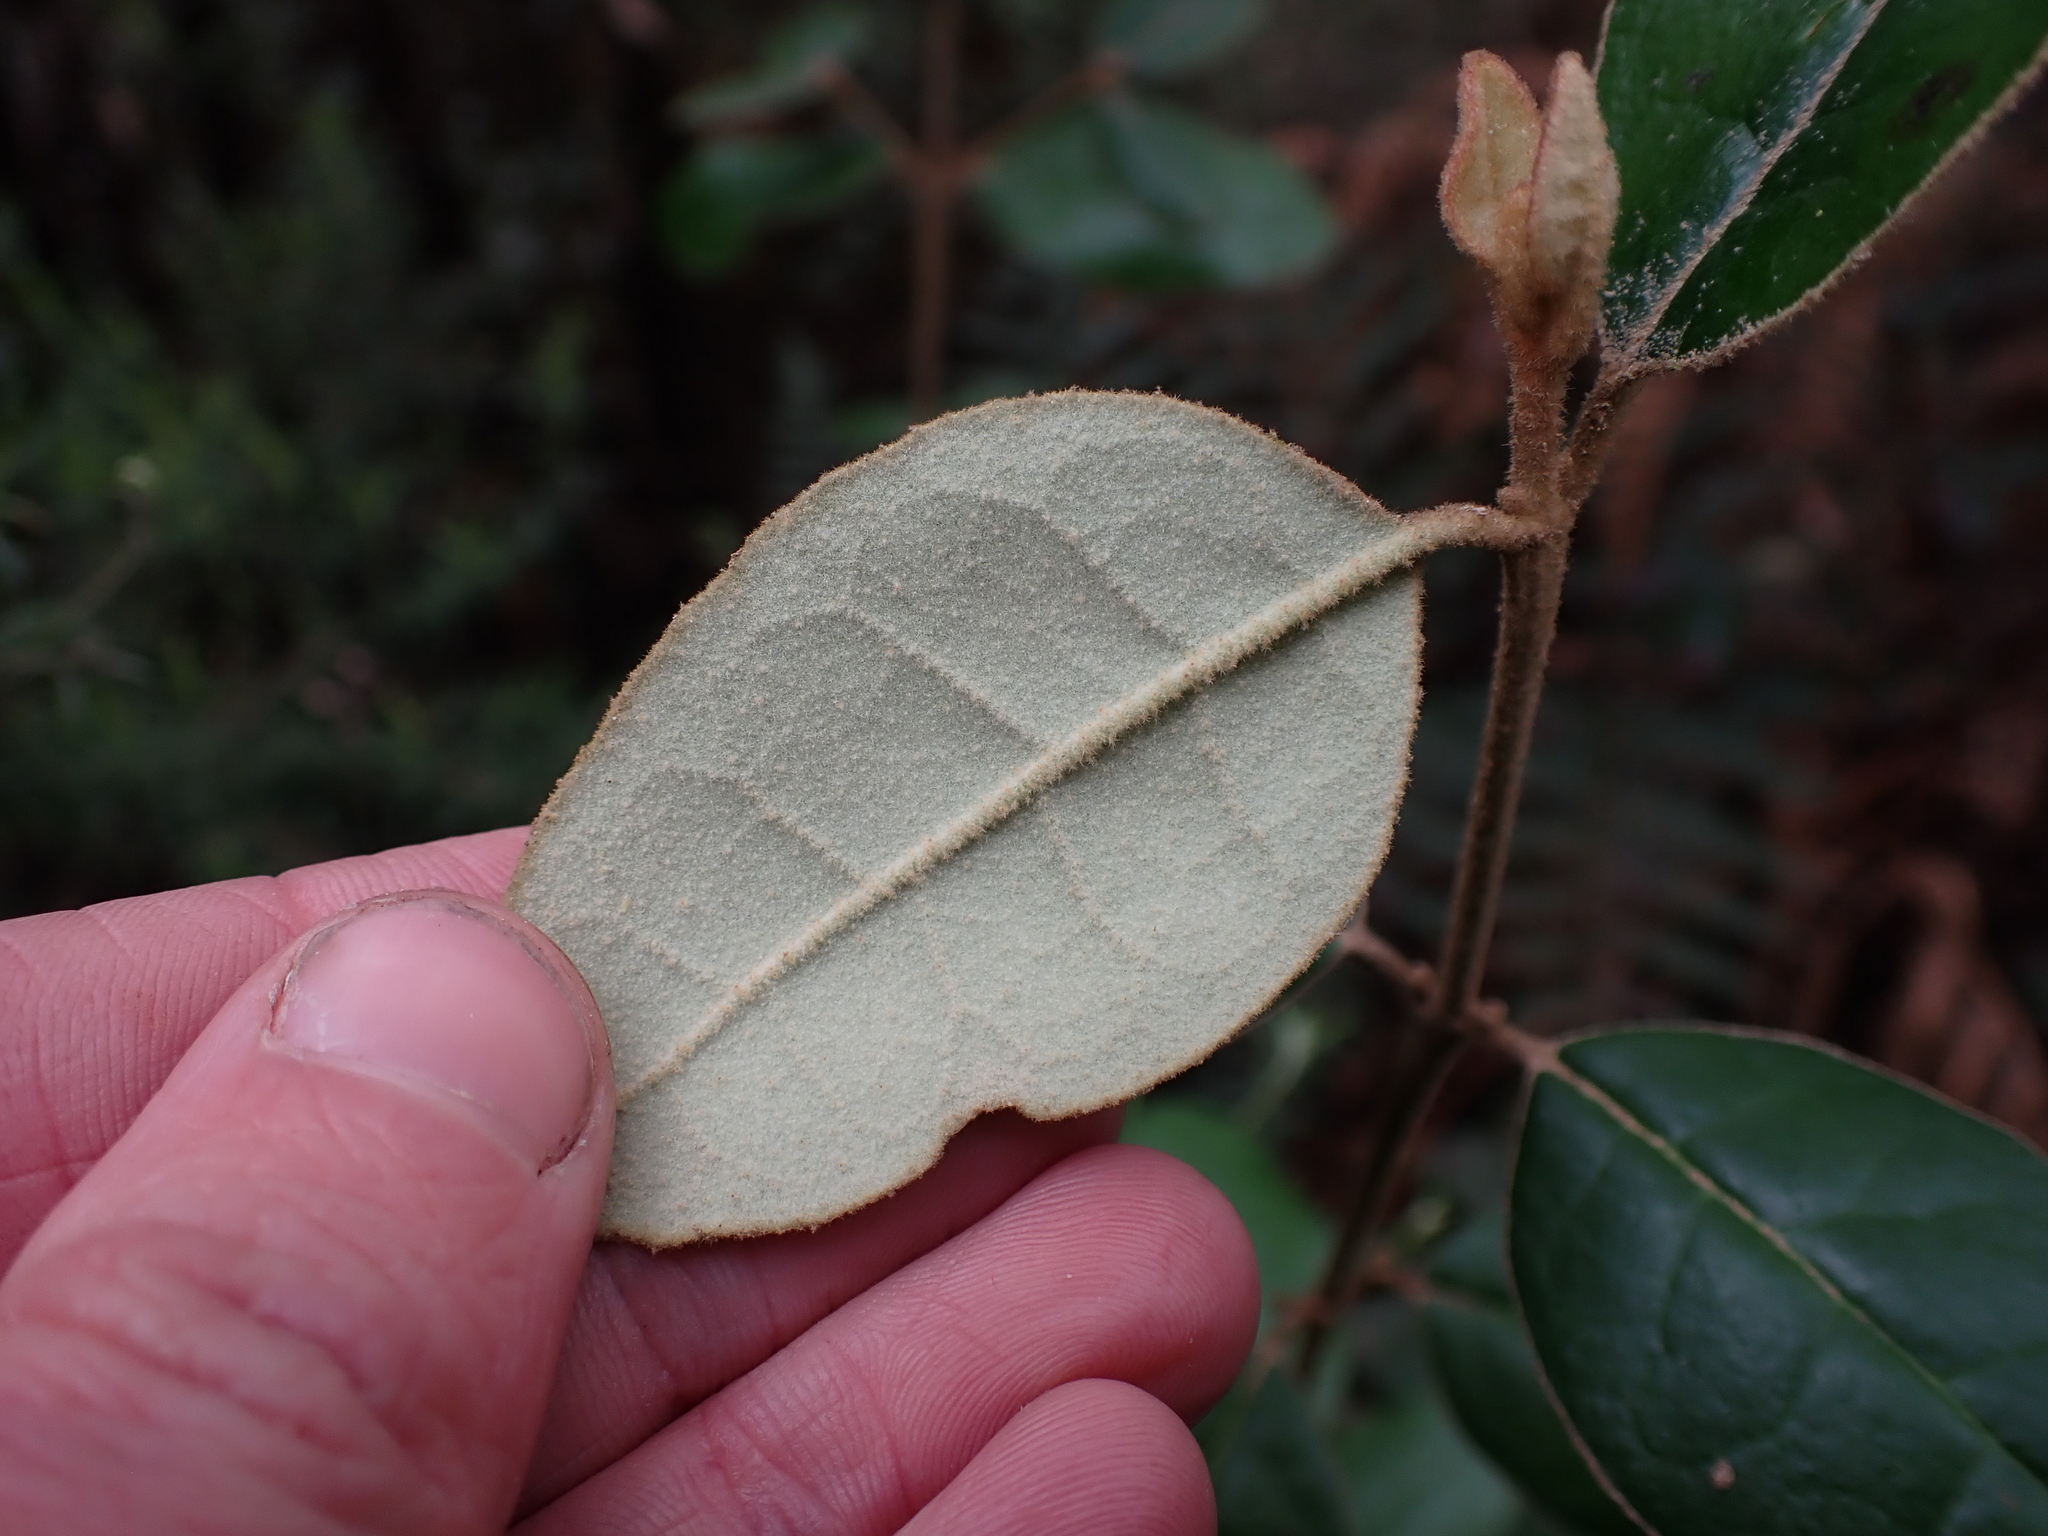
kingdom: Plantae
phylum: Tracheophyta
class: Magnoliopsida
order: Sapindales
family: Rutaceae
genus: Correa
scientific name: Correa lawrenceana
